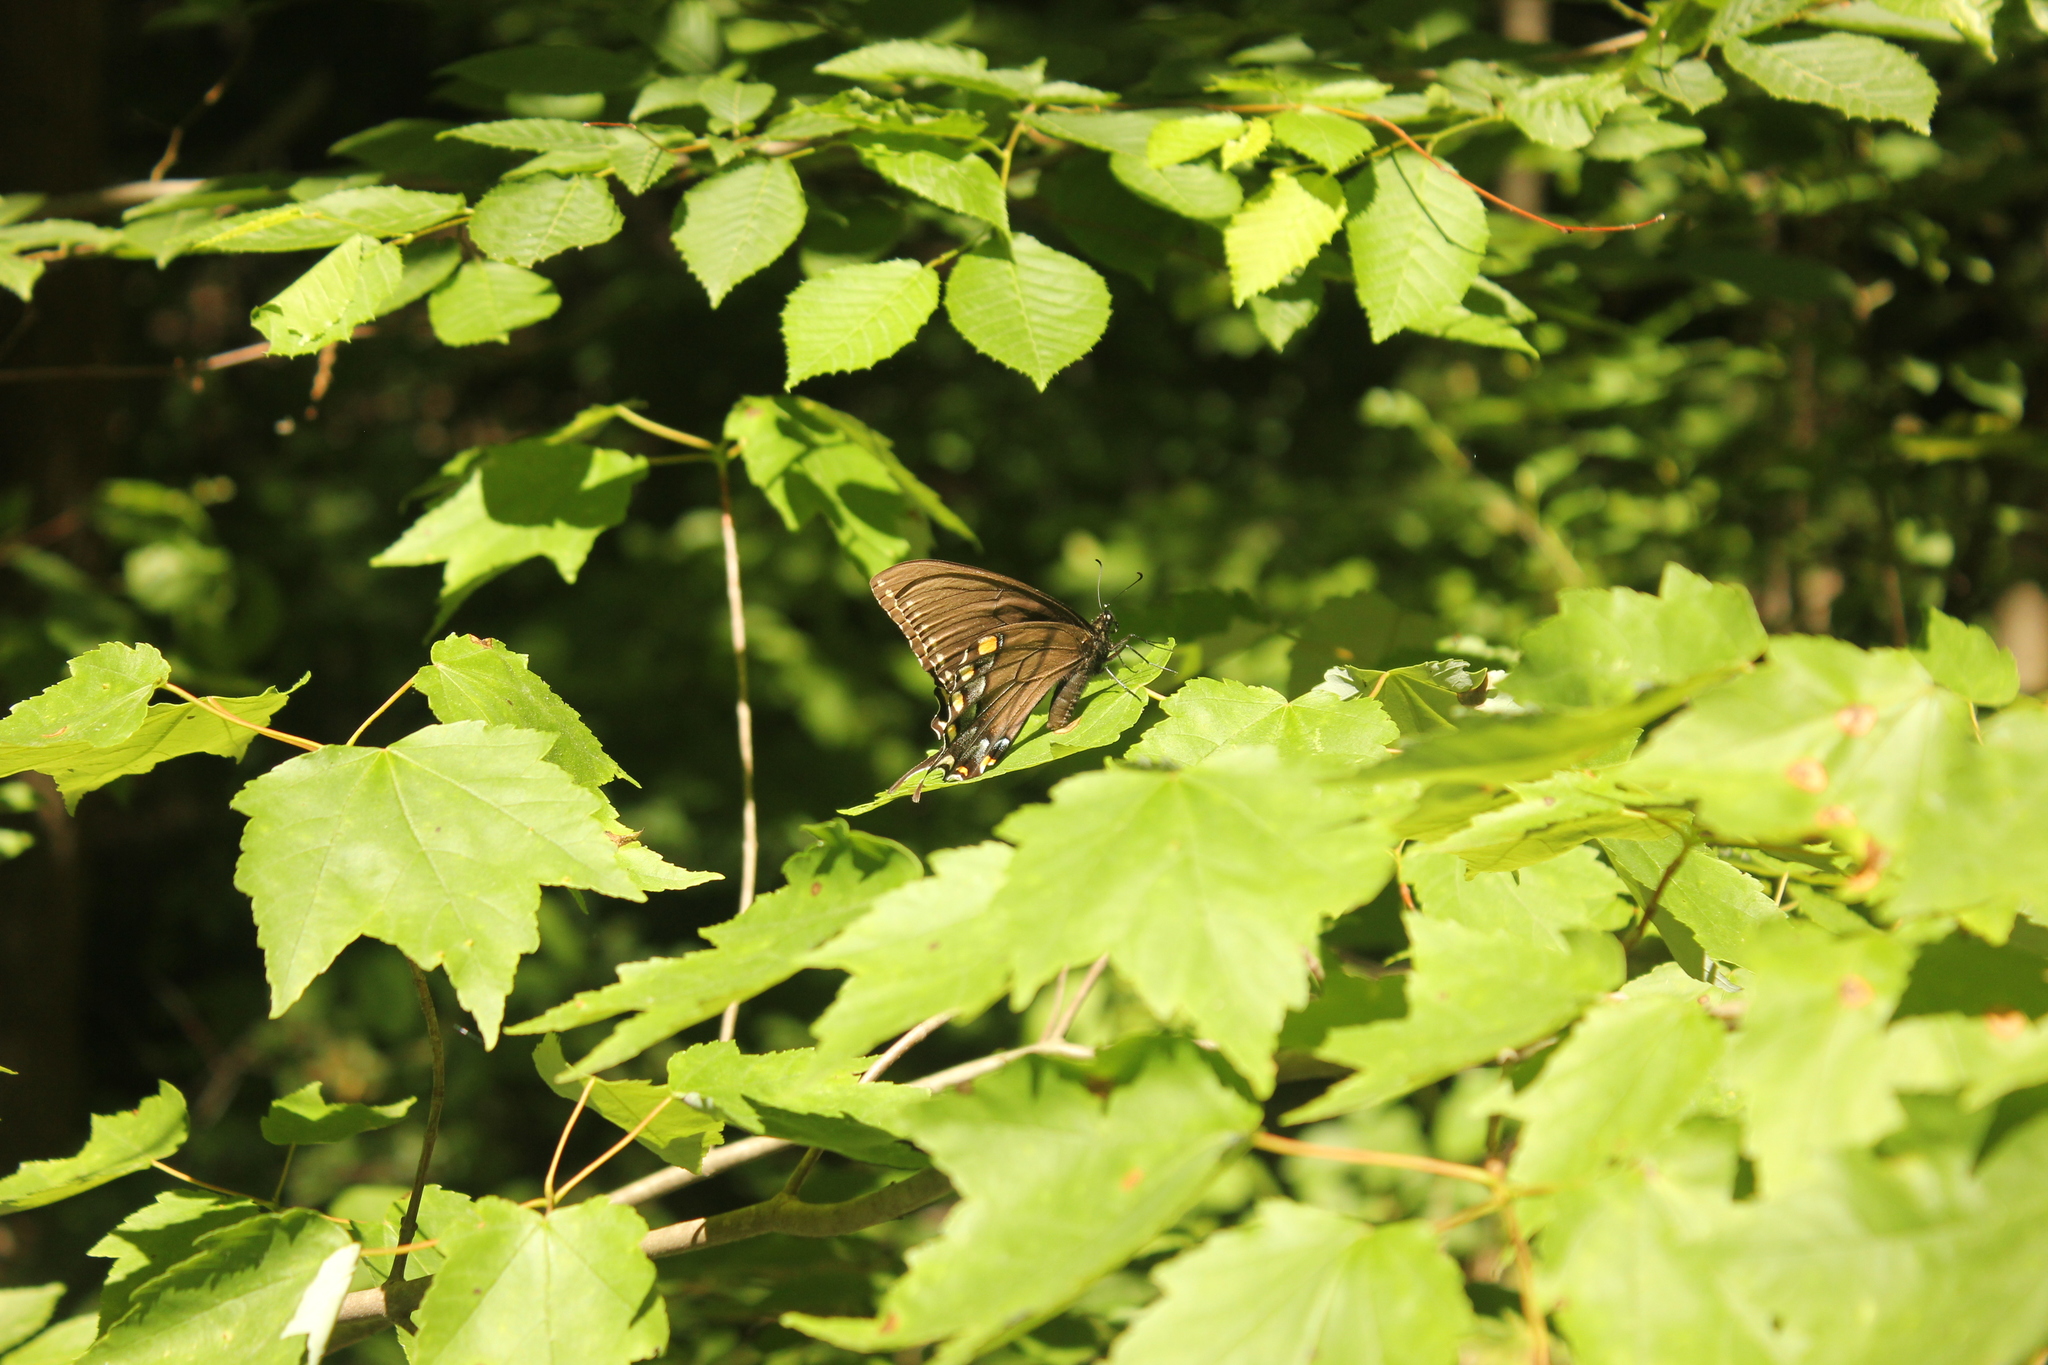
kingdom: Animalia
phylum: Arthropoda
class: Insecta
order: Lepidoptera
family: Papilionidae
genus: Papilio
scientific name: Papilio glaucus
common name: Tiger swallowtail
